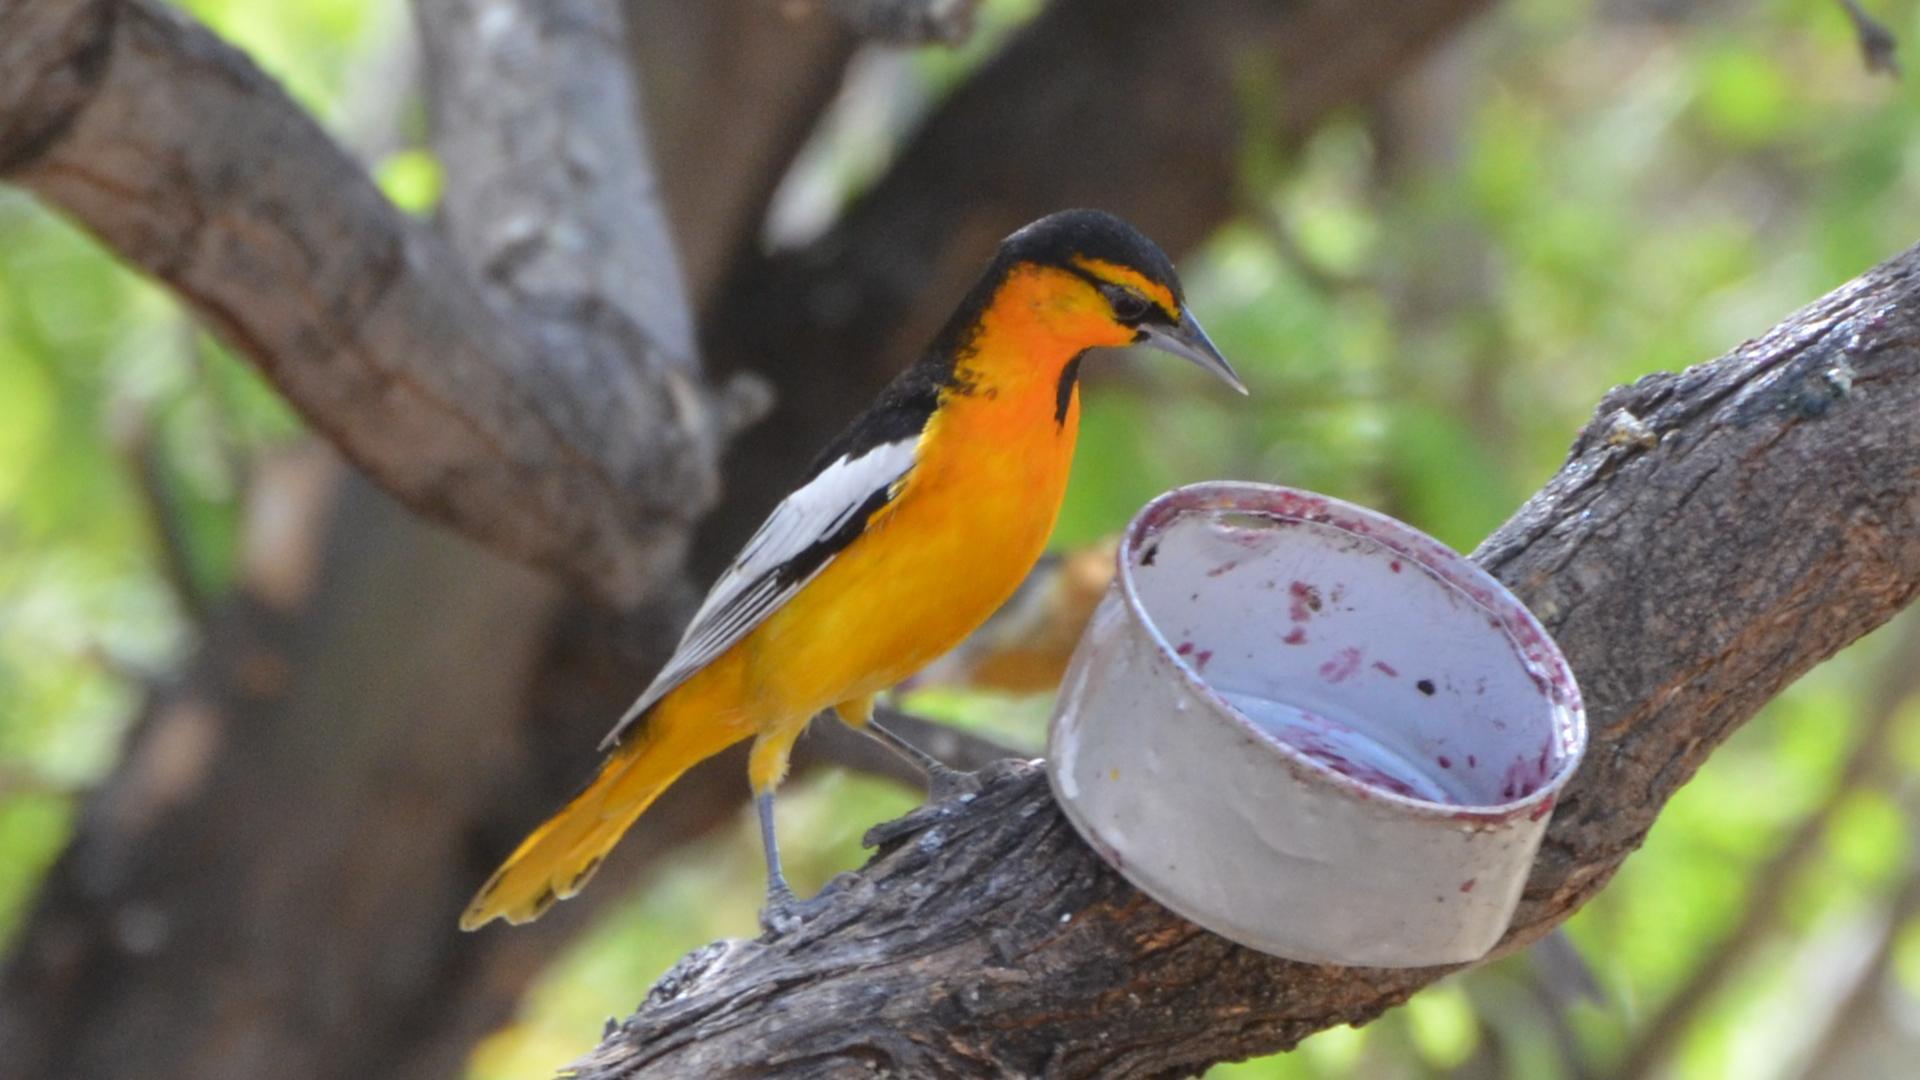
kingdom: Animalia
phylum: Chordata
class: Aves
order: Passeriformes
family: Icteridae
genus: Icterus
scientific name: Icterus bullockii
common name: Bullock's oriole
